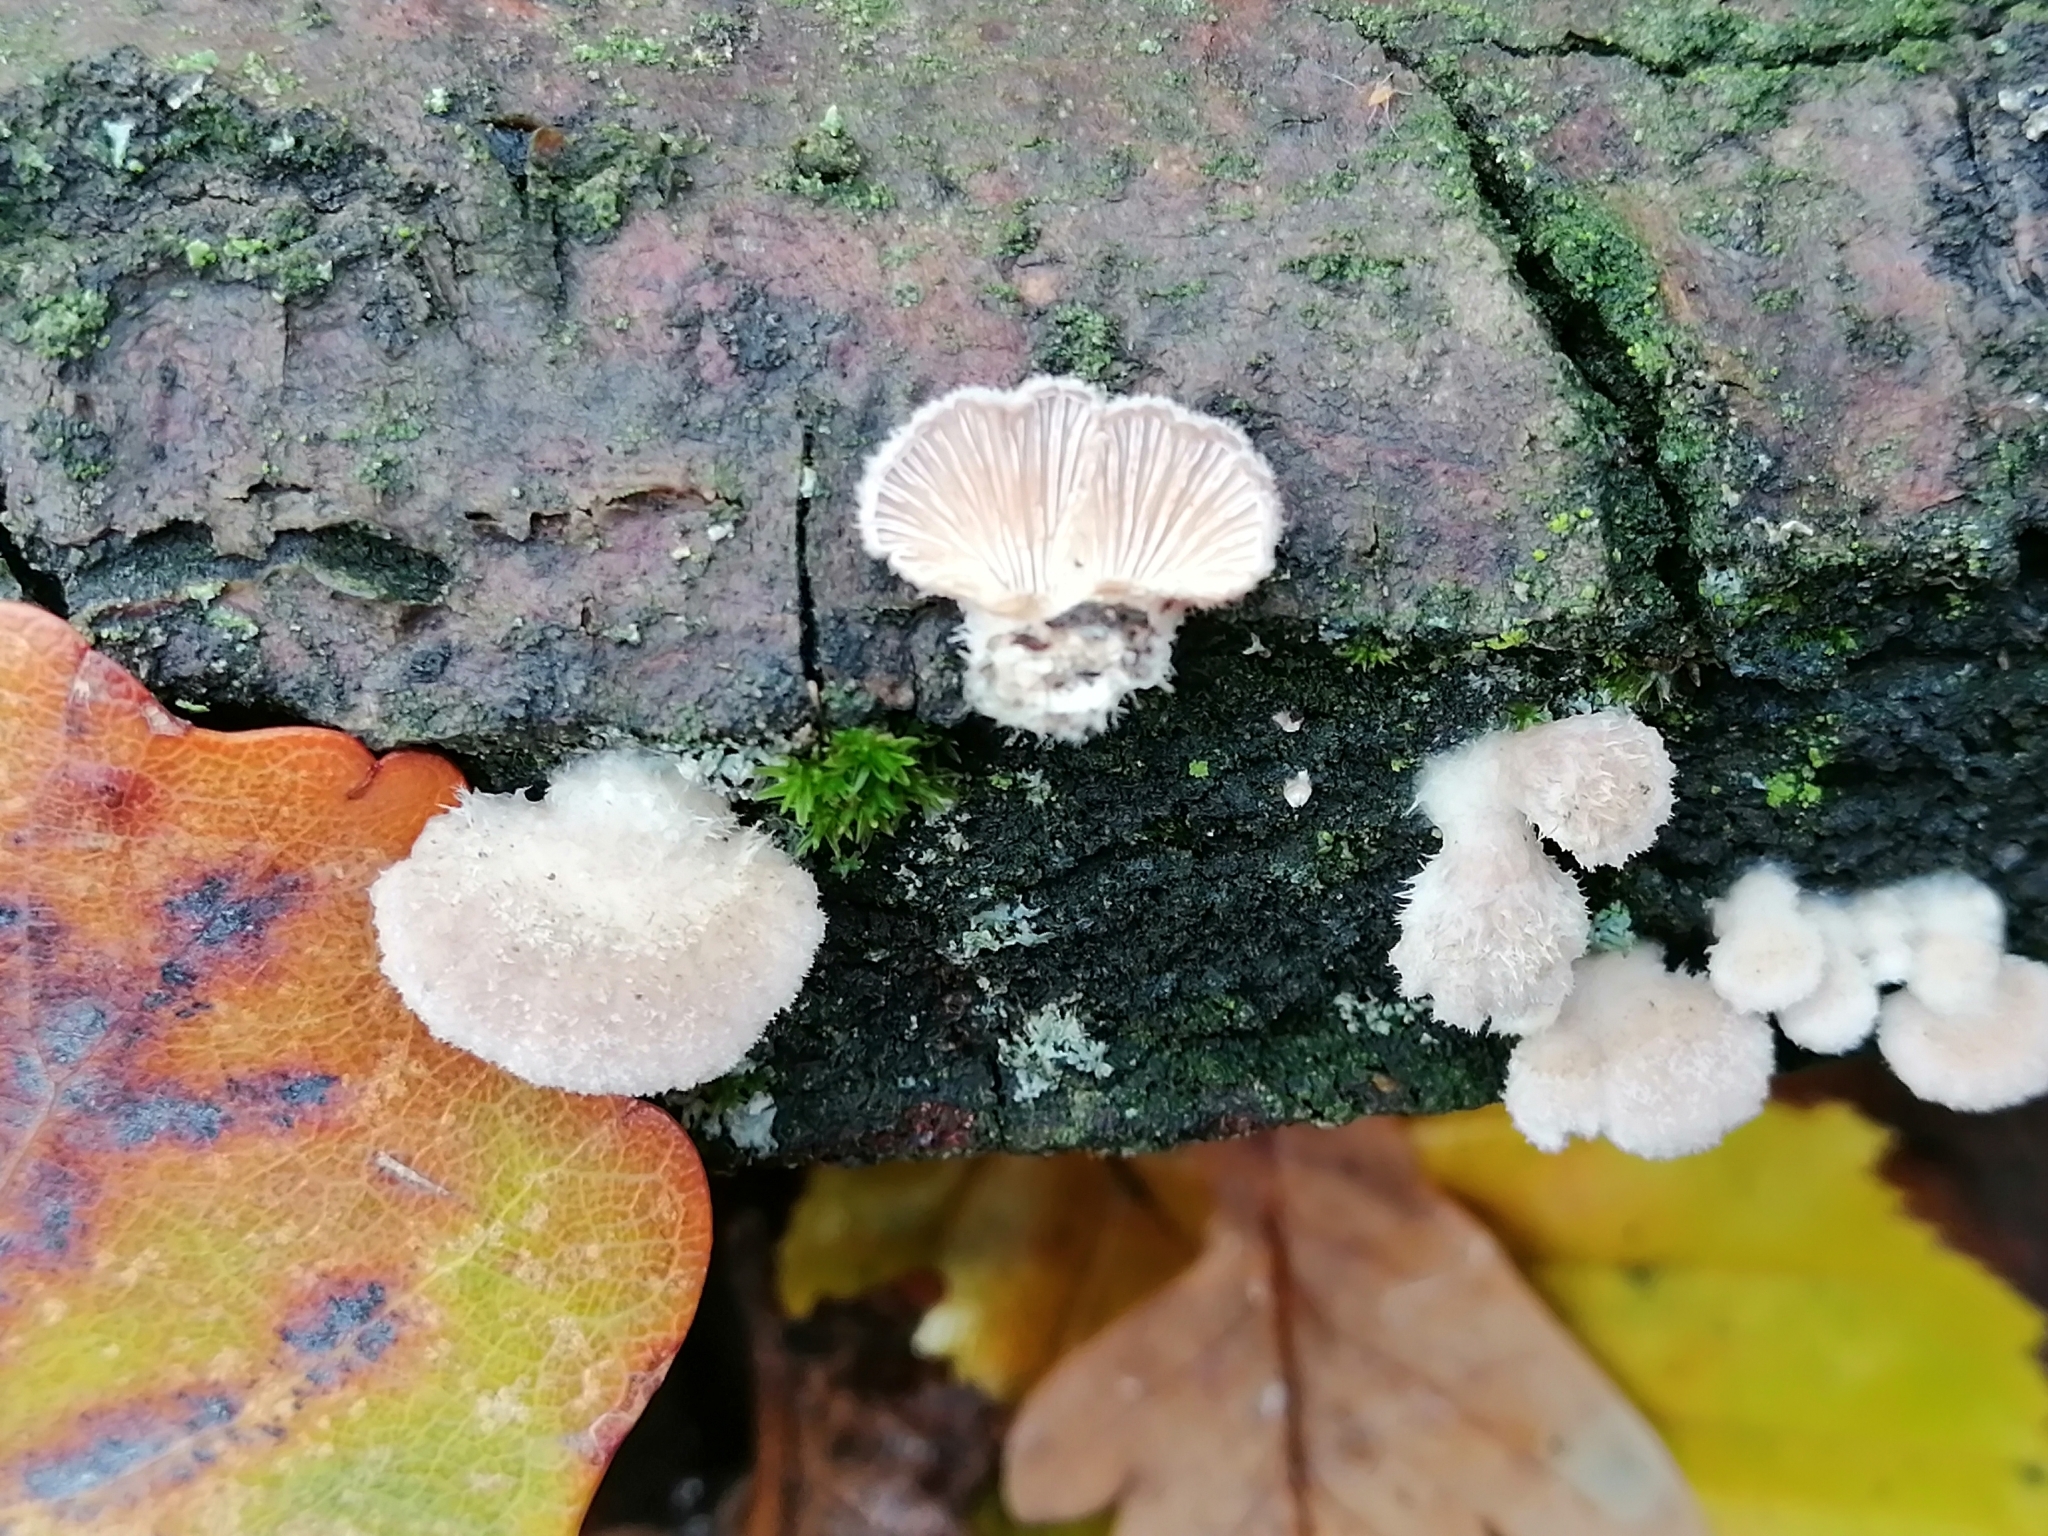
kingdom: Fungi
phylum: Basidiomycota
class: Agaricomycetes
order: Agaricales
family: Schizophyllaceae
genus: Schizophyllum
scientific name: Schizophyllum commune
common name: Common porecrust
